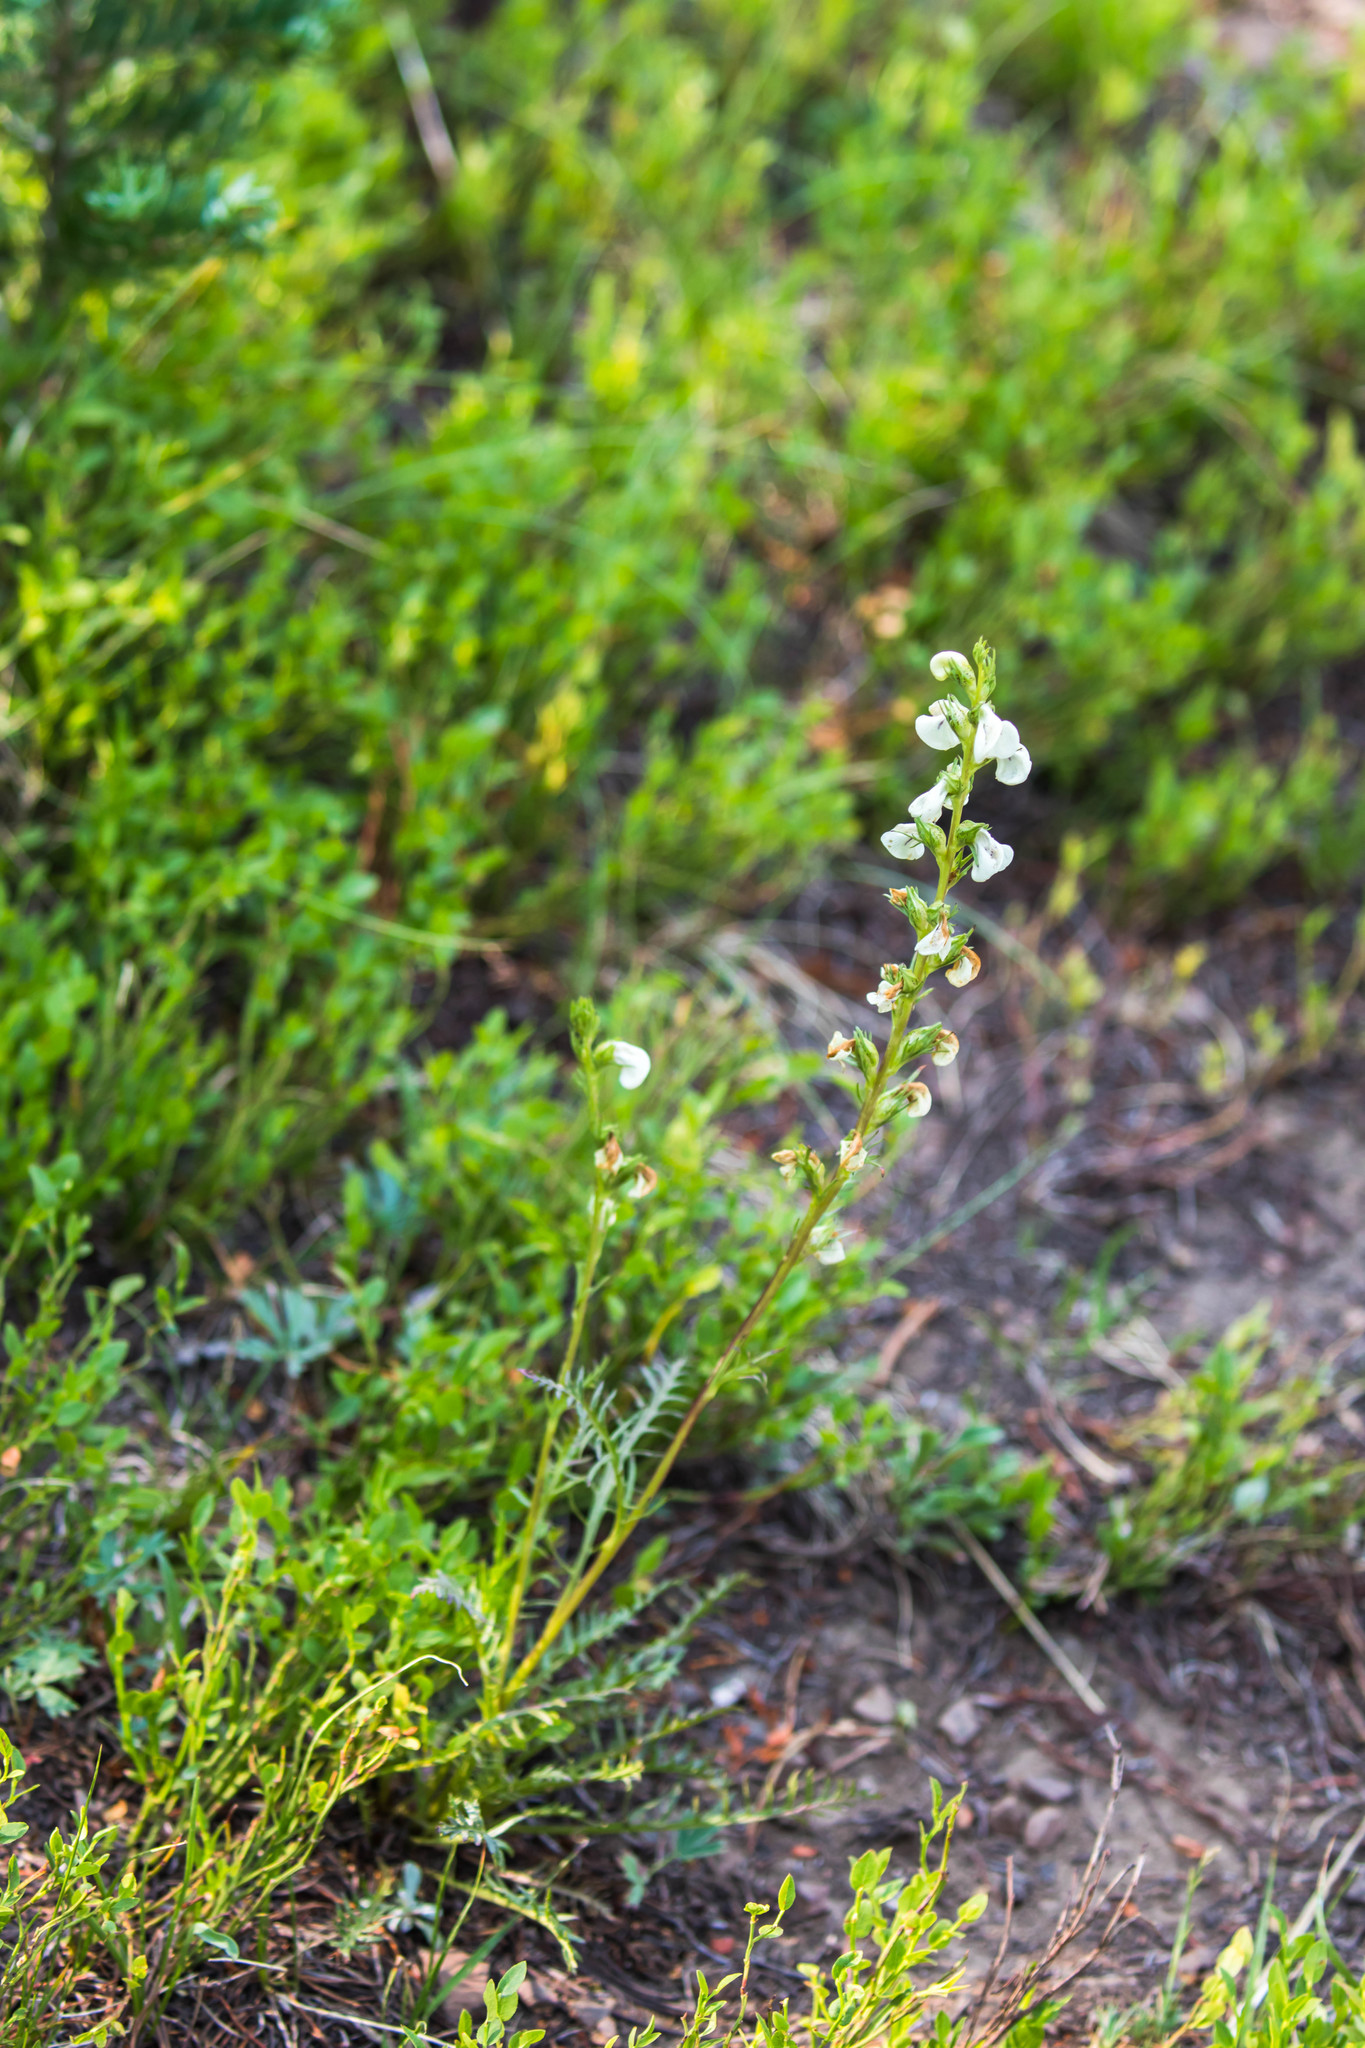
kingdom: Plantae
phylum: Tracheophyta
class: Magnoliopsida
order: Lamiales
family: Orobanchaceae
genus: Pedicularis
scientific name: Pedicularis contorta
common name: Coiled lousewort
